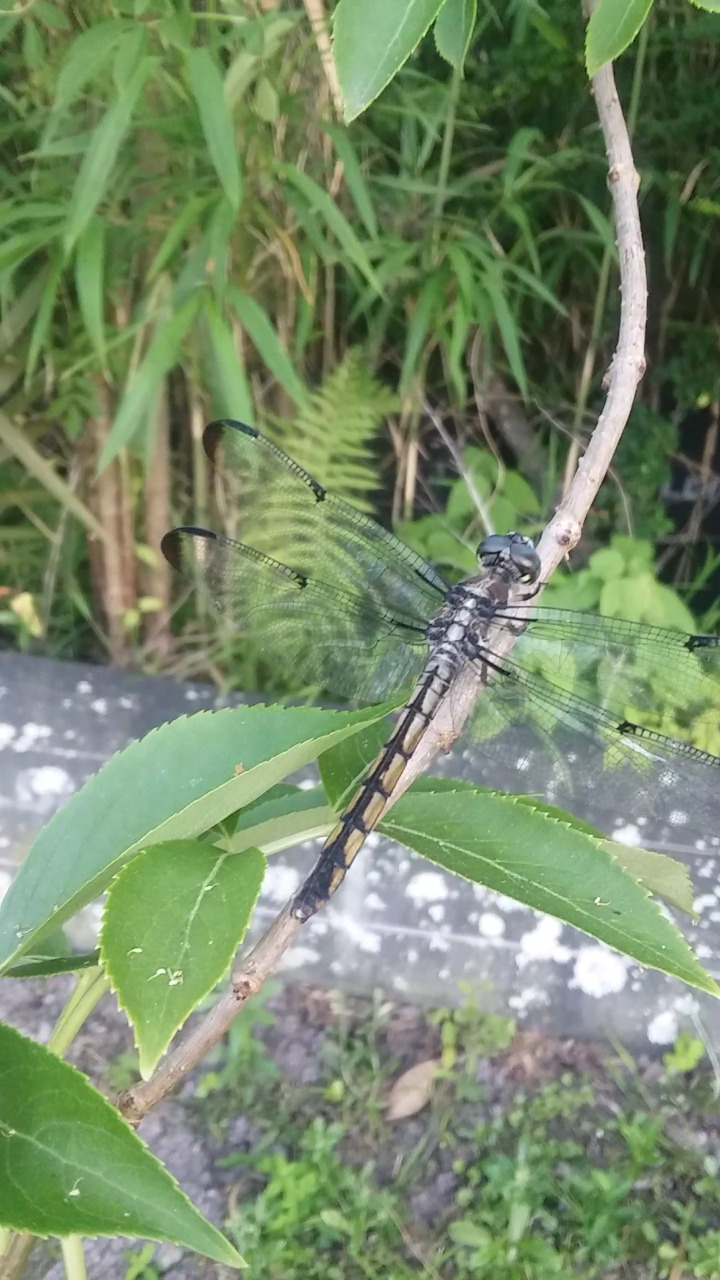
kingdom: Animalia
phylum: Arthropoda
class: Insecta
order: Odonata
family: Libellulidae
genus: Libellula
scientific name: Libellula vibrans
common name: Great blue skimmer
